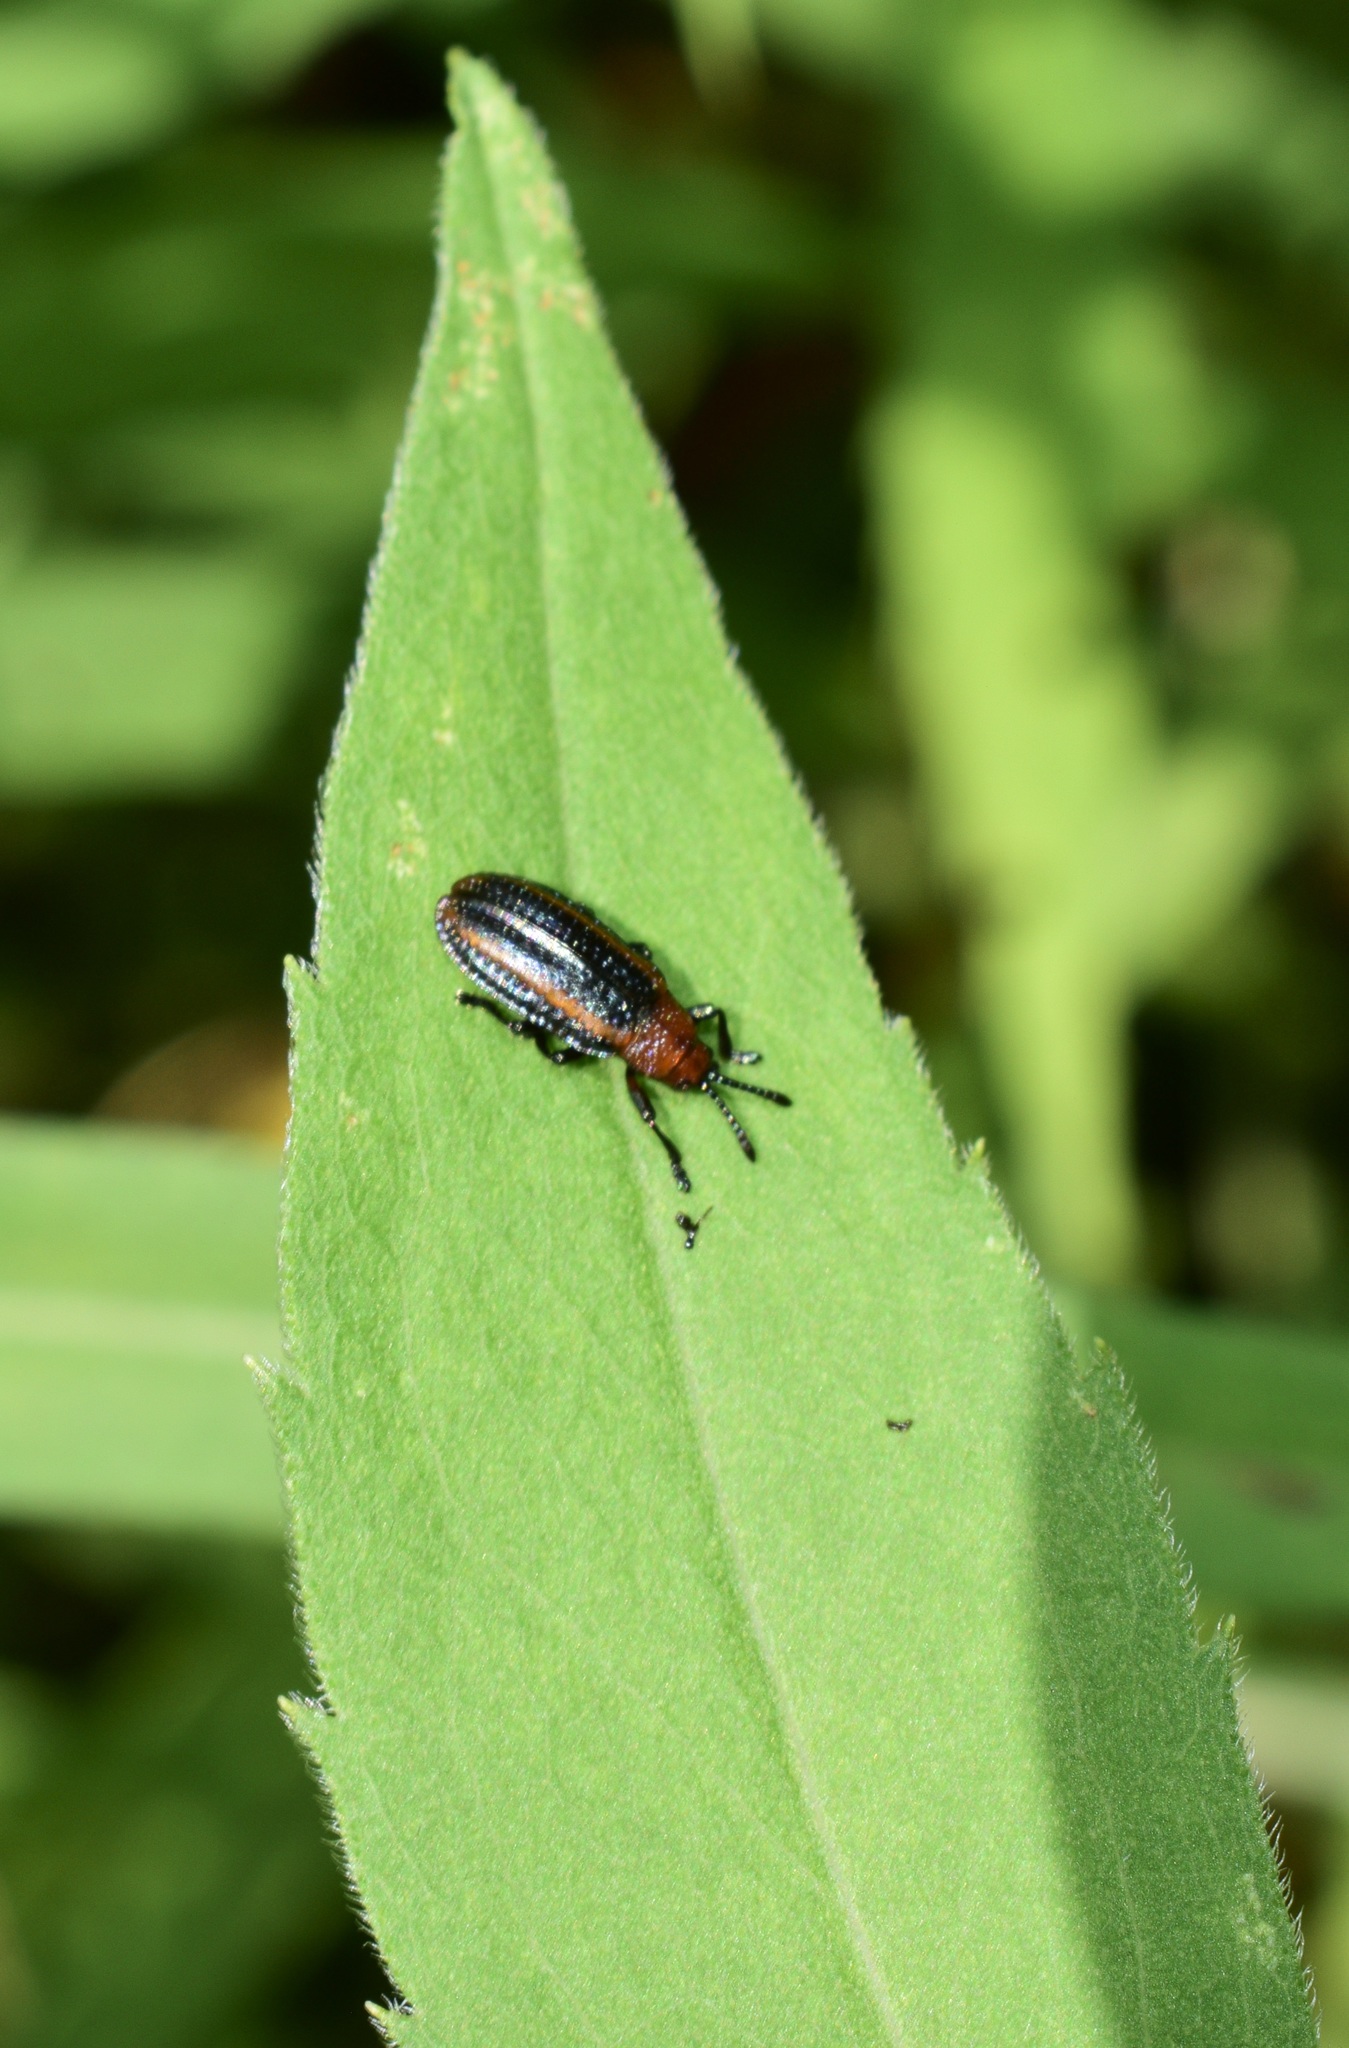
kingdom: Animalia
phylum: Arthropoda
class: Insecta
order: Coleoptera
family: Chrysomelidae
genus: Microrhopala
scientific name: Microrhopala vittata
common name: Goldenrod leaf miner beetle
